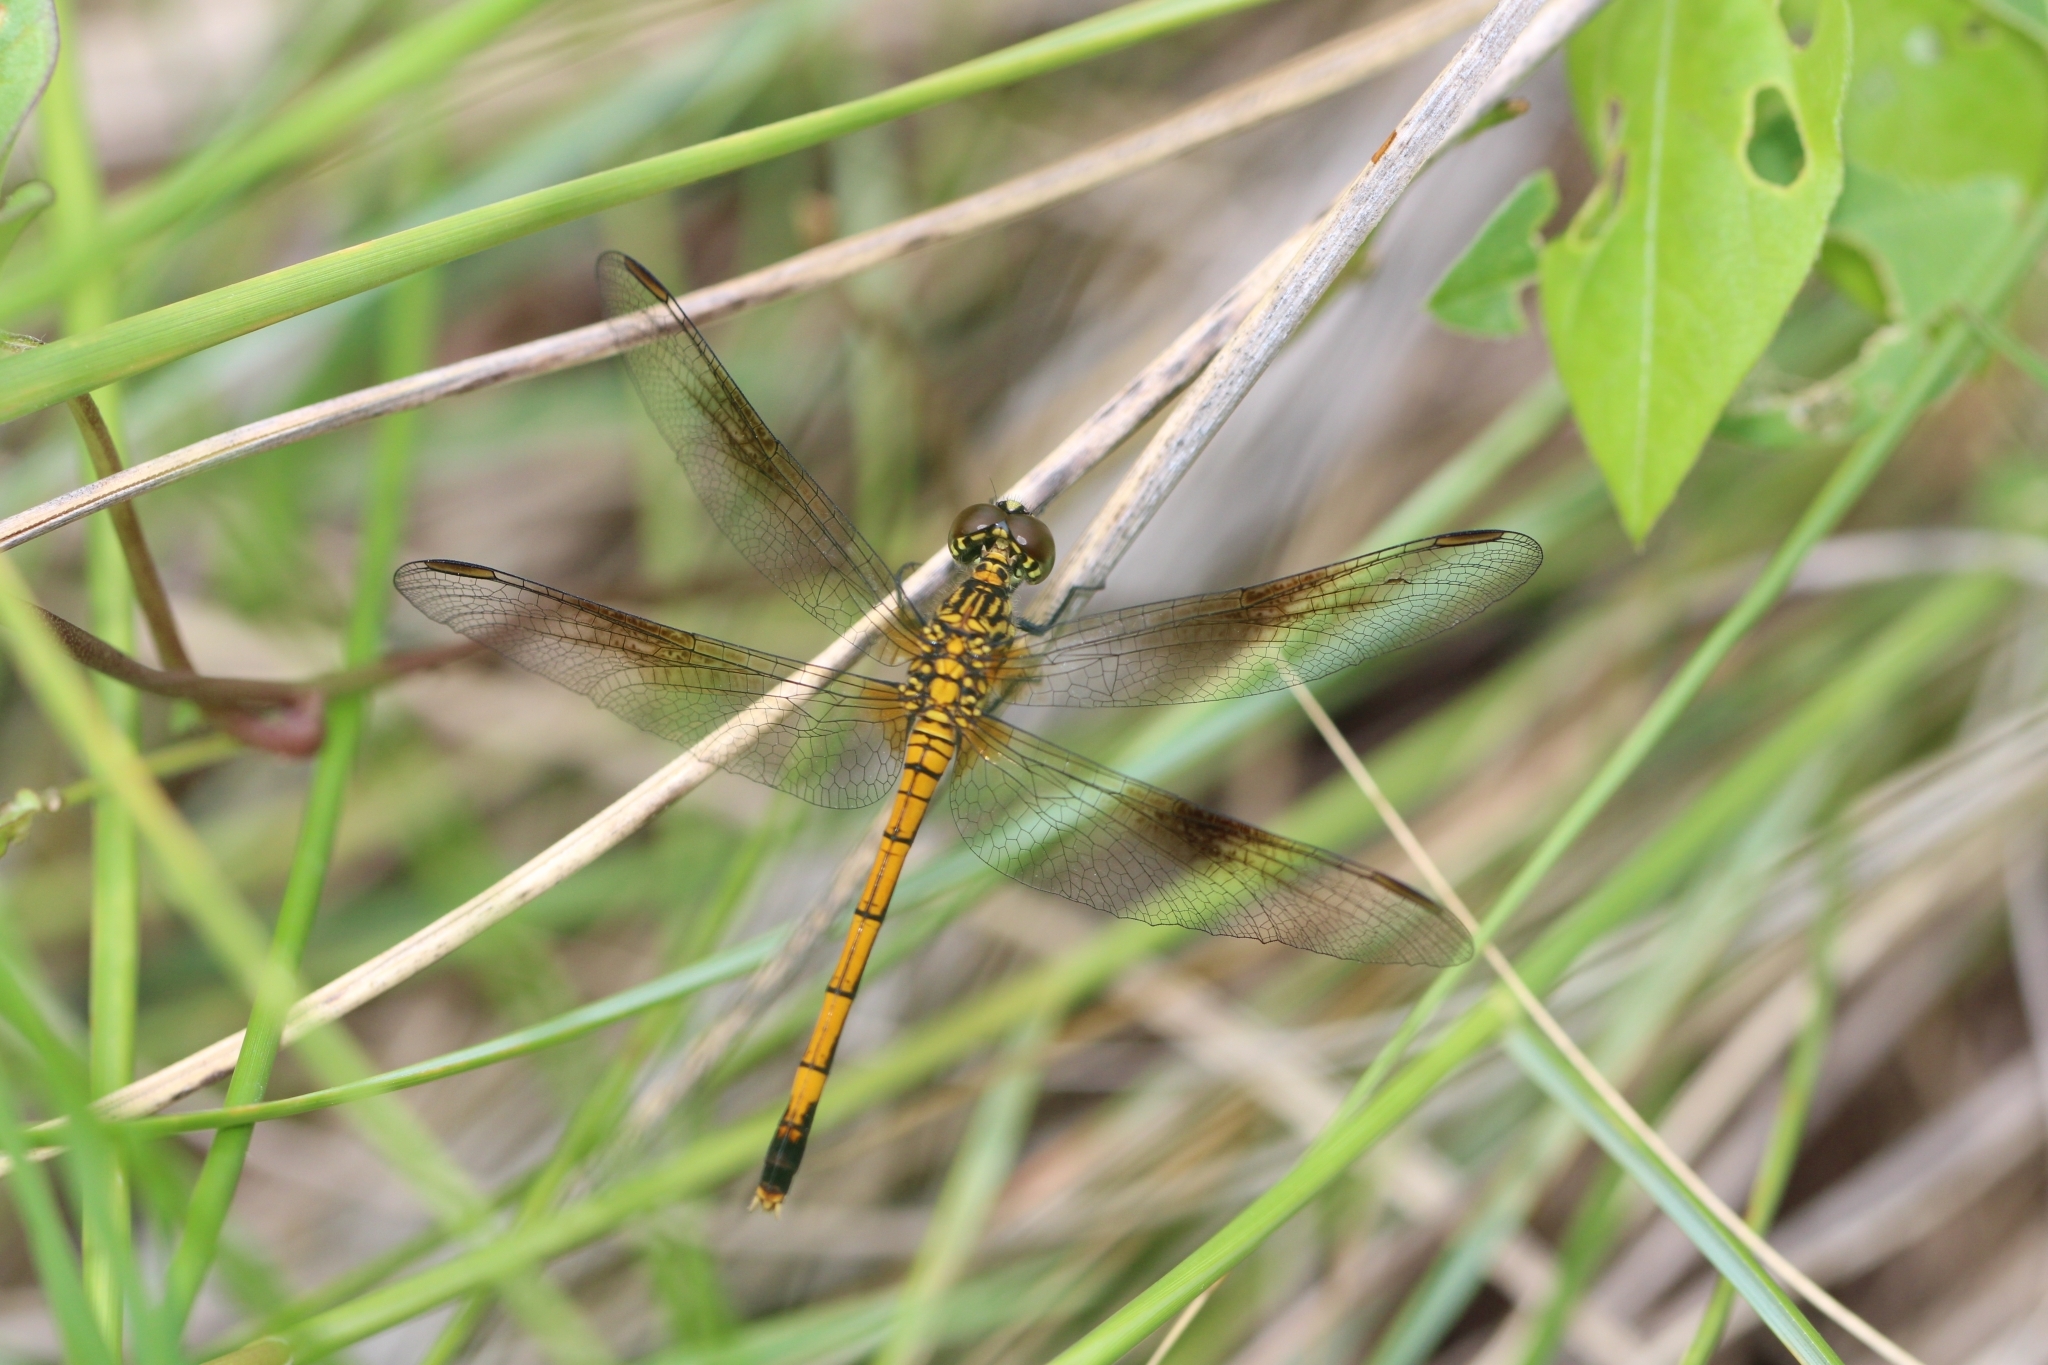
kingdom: Animalia
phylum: Arthropoda
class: Insecta
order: Odonata
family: Libellulidae
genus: Erythrodiplax
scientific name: Erythrodiplax berenice
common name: Seaside dragonlet
